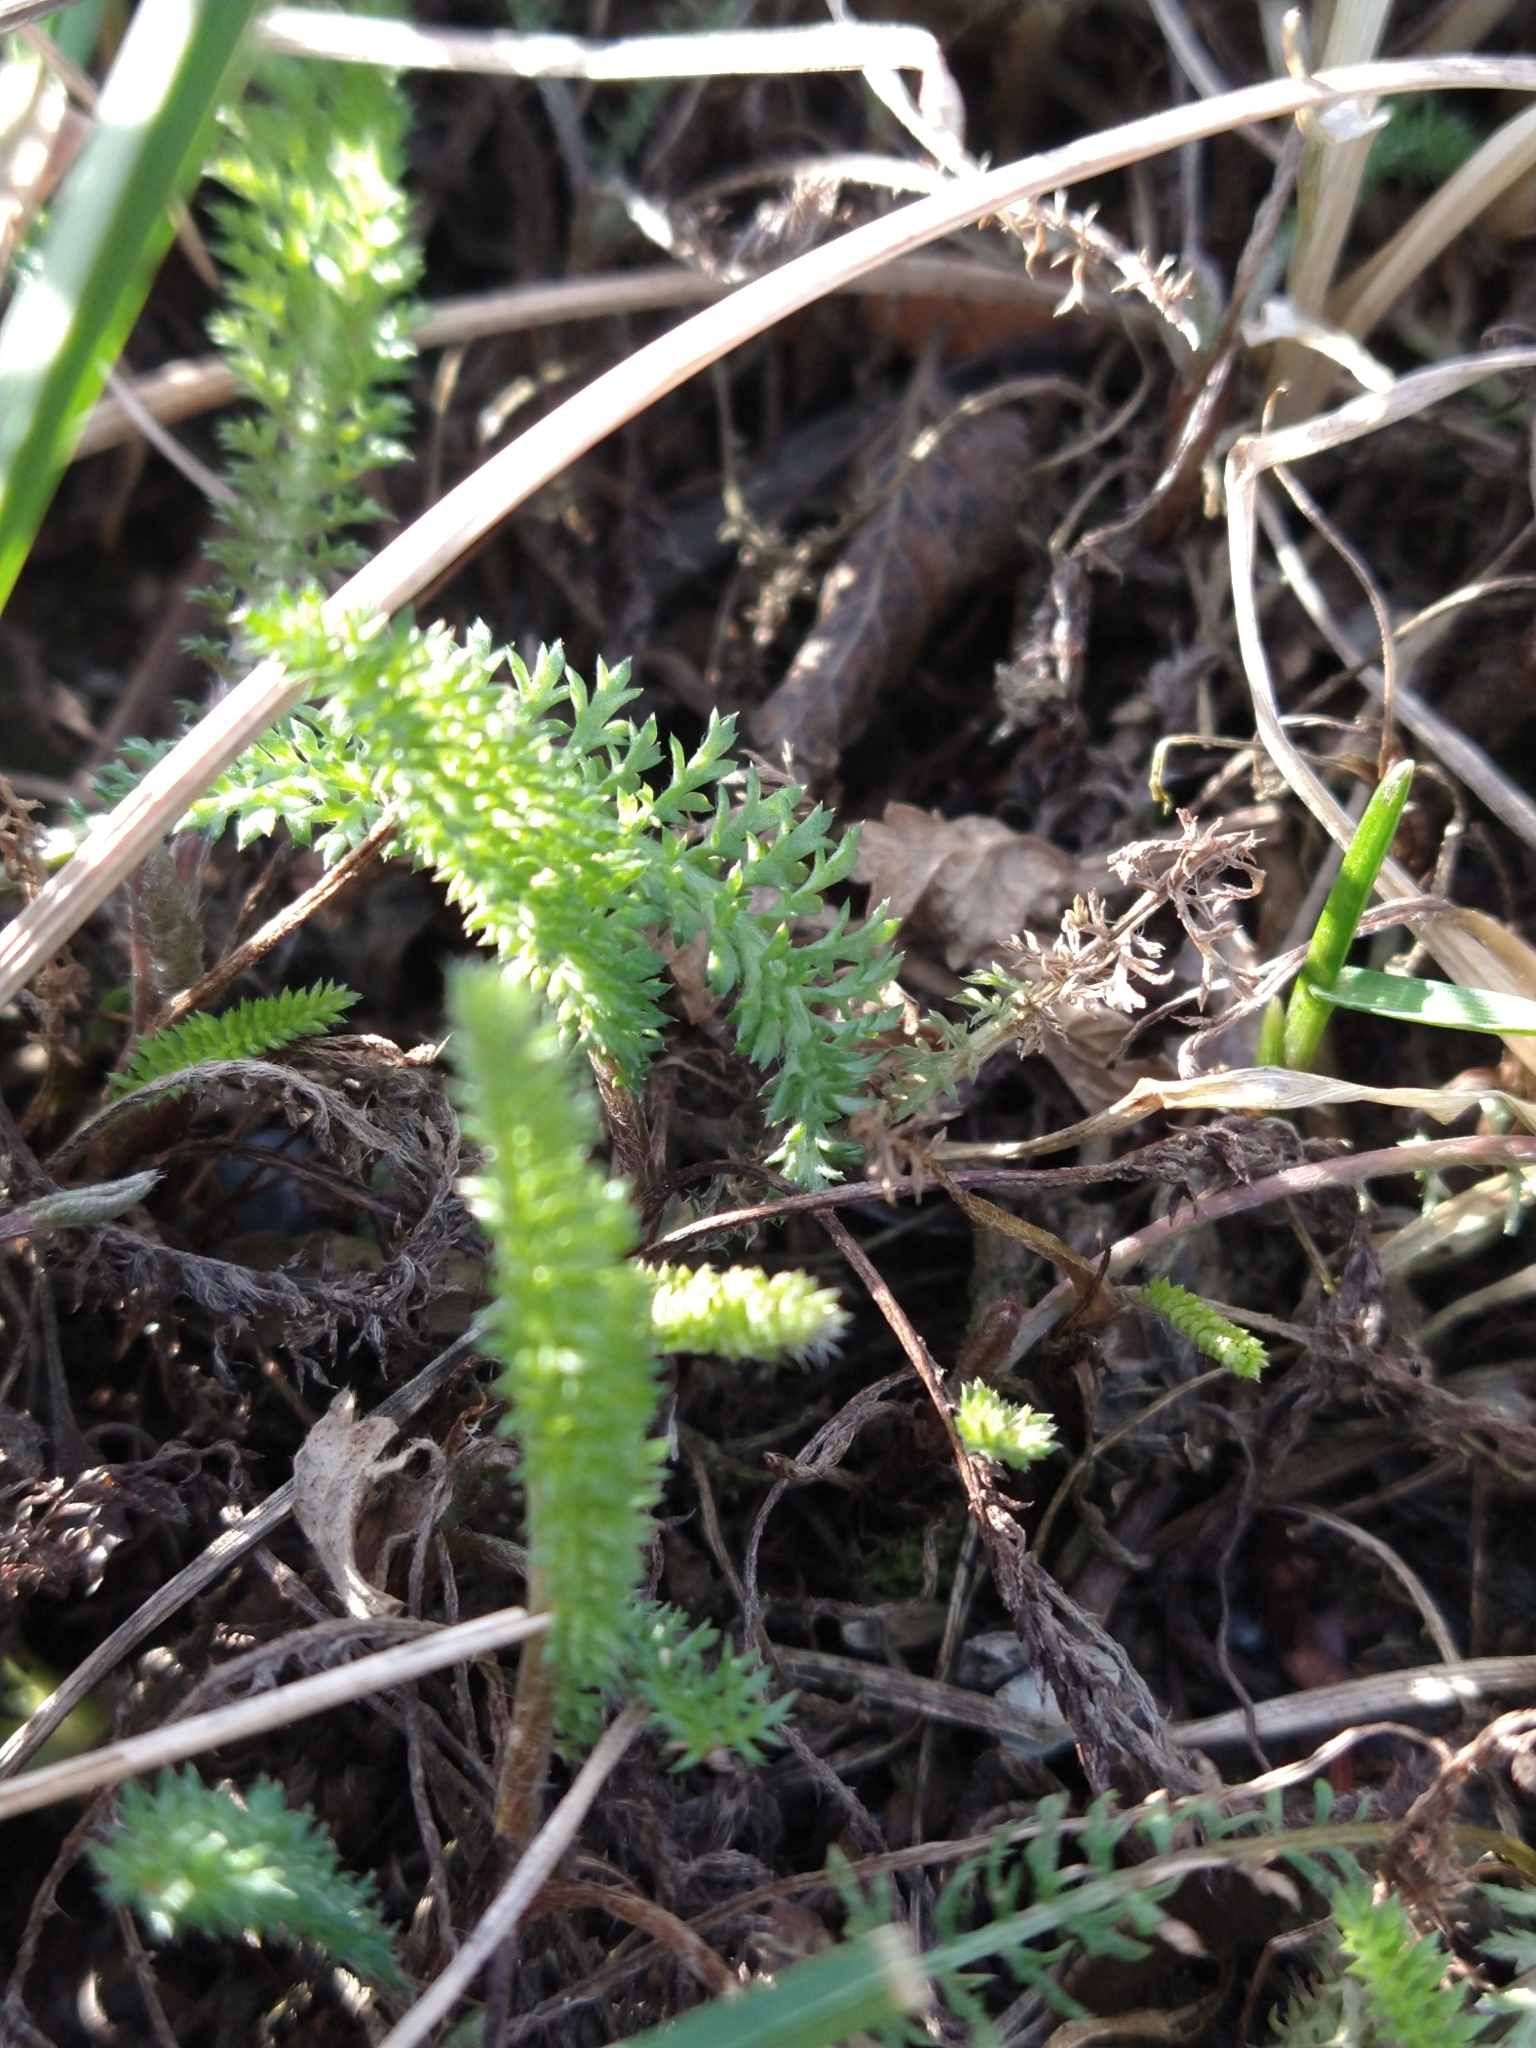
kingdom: Plantae
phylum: Tracheophyta
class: Magnoliopsida
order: Asterales
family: Asteraceae
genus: Achillea
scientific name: Achillea millefolium
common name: Yarrow
